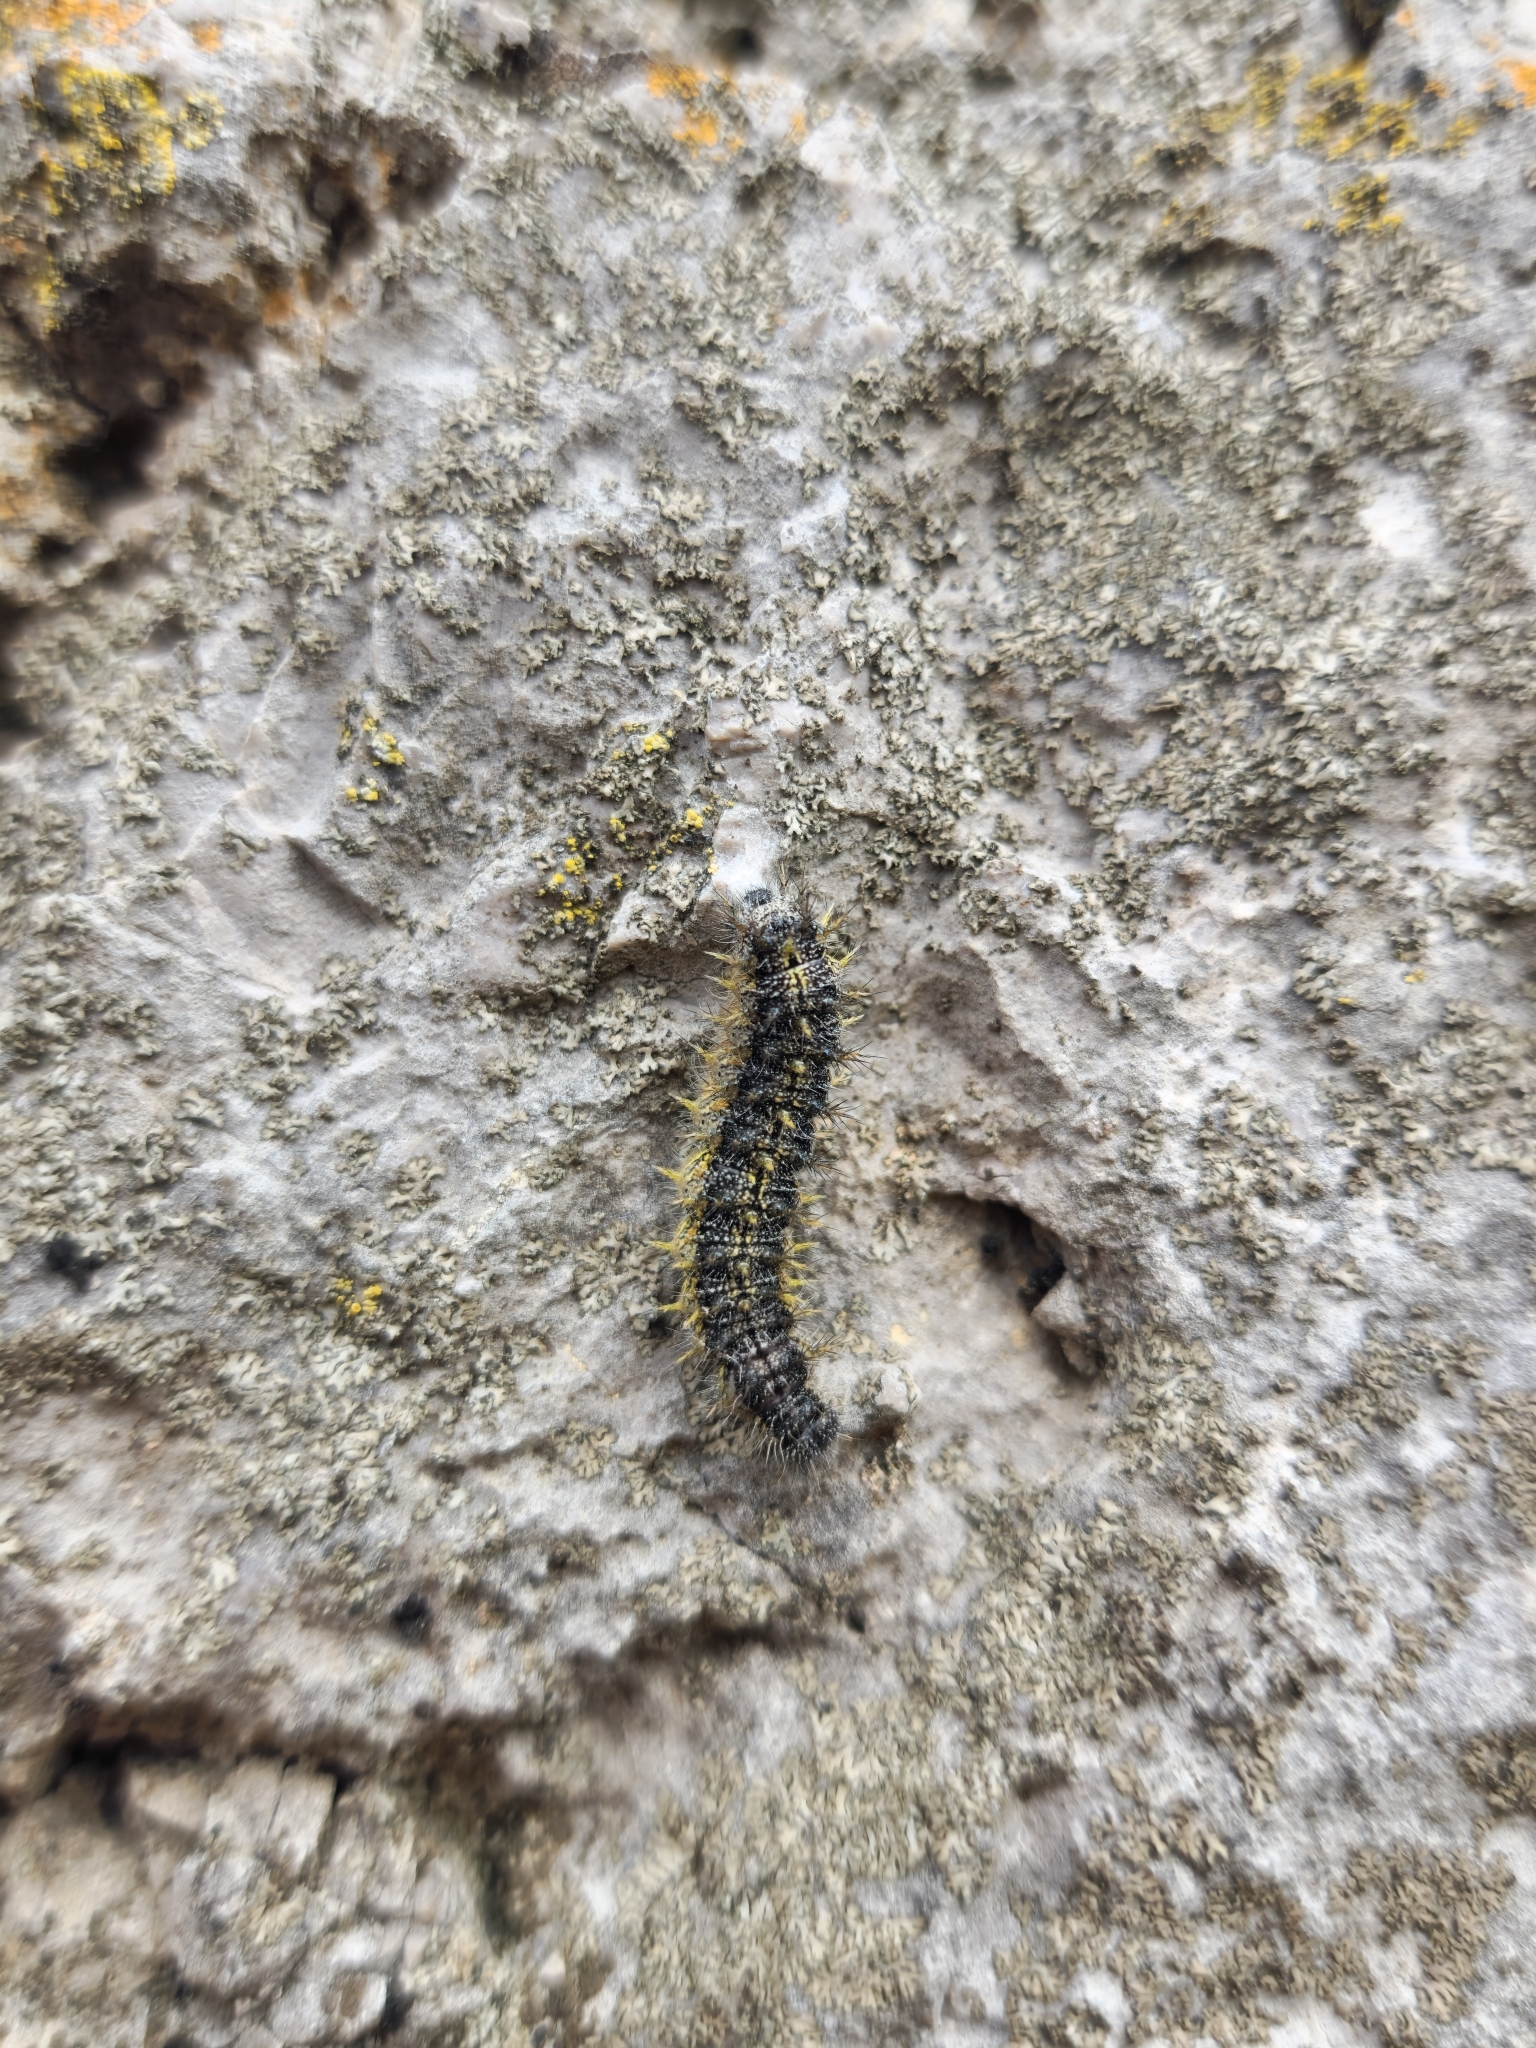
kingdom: Animalia
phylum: Arthropoda
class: Insecta
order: Lepidoptera
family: Nymphalidae
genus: Aglais
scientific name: Aglais urticae
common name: Small tortoiseshell
